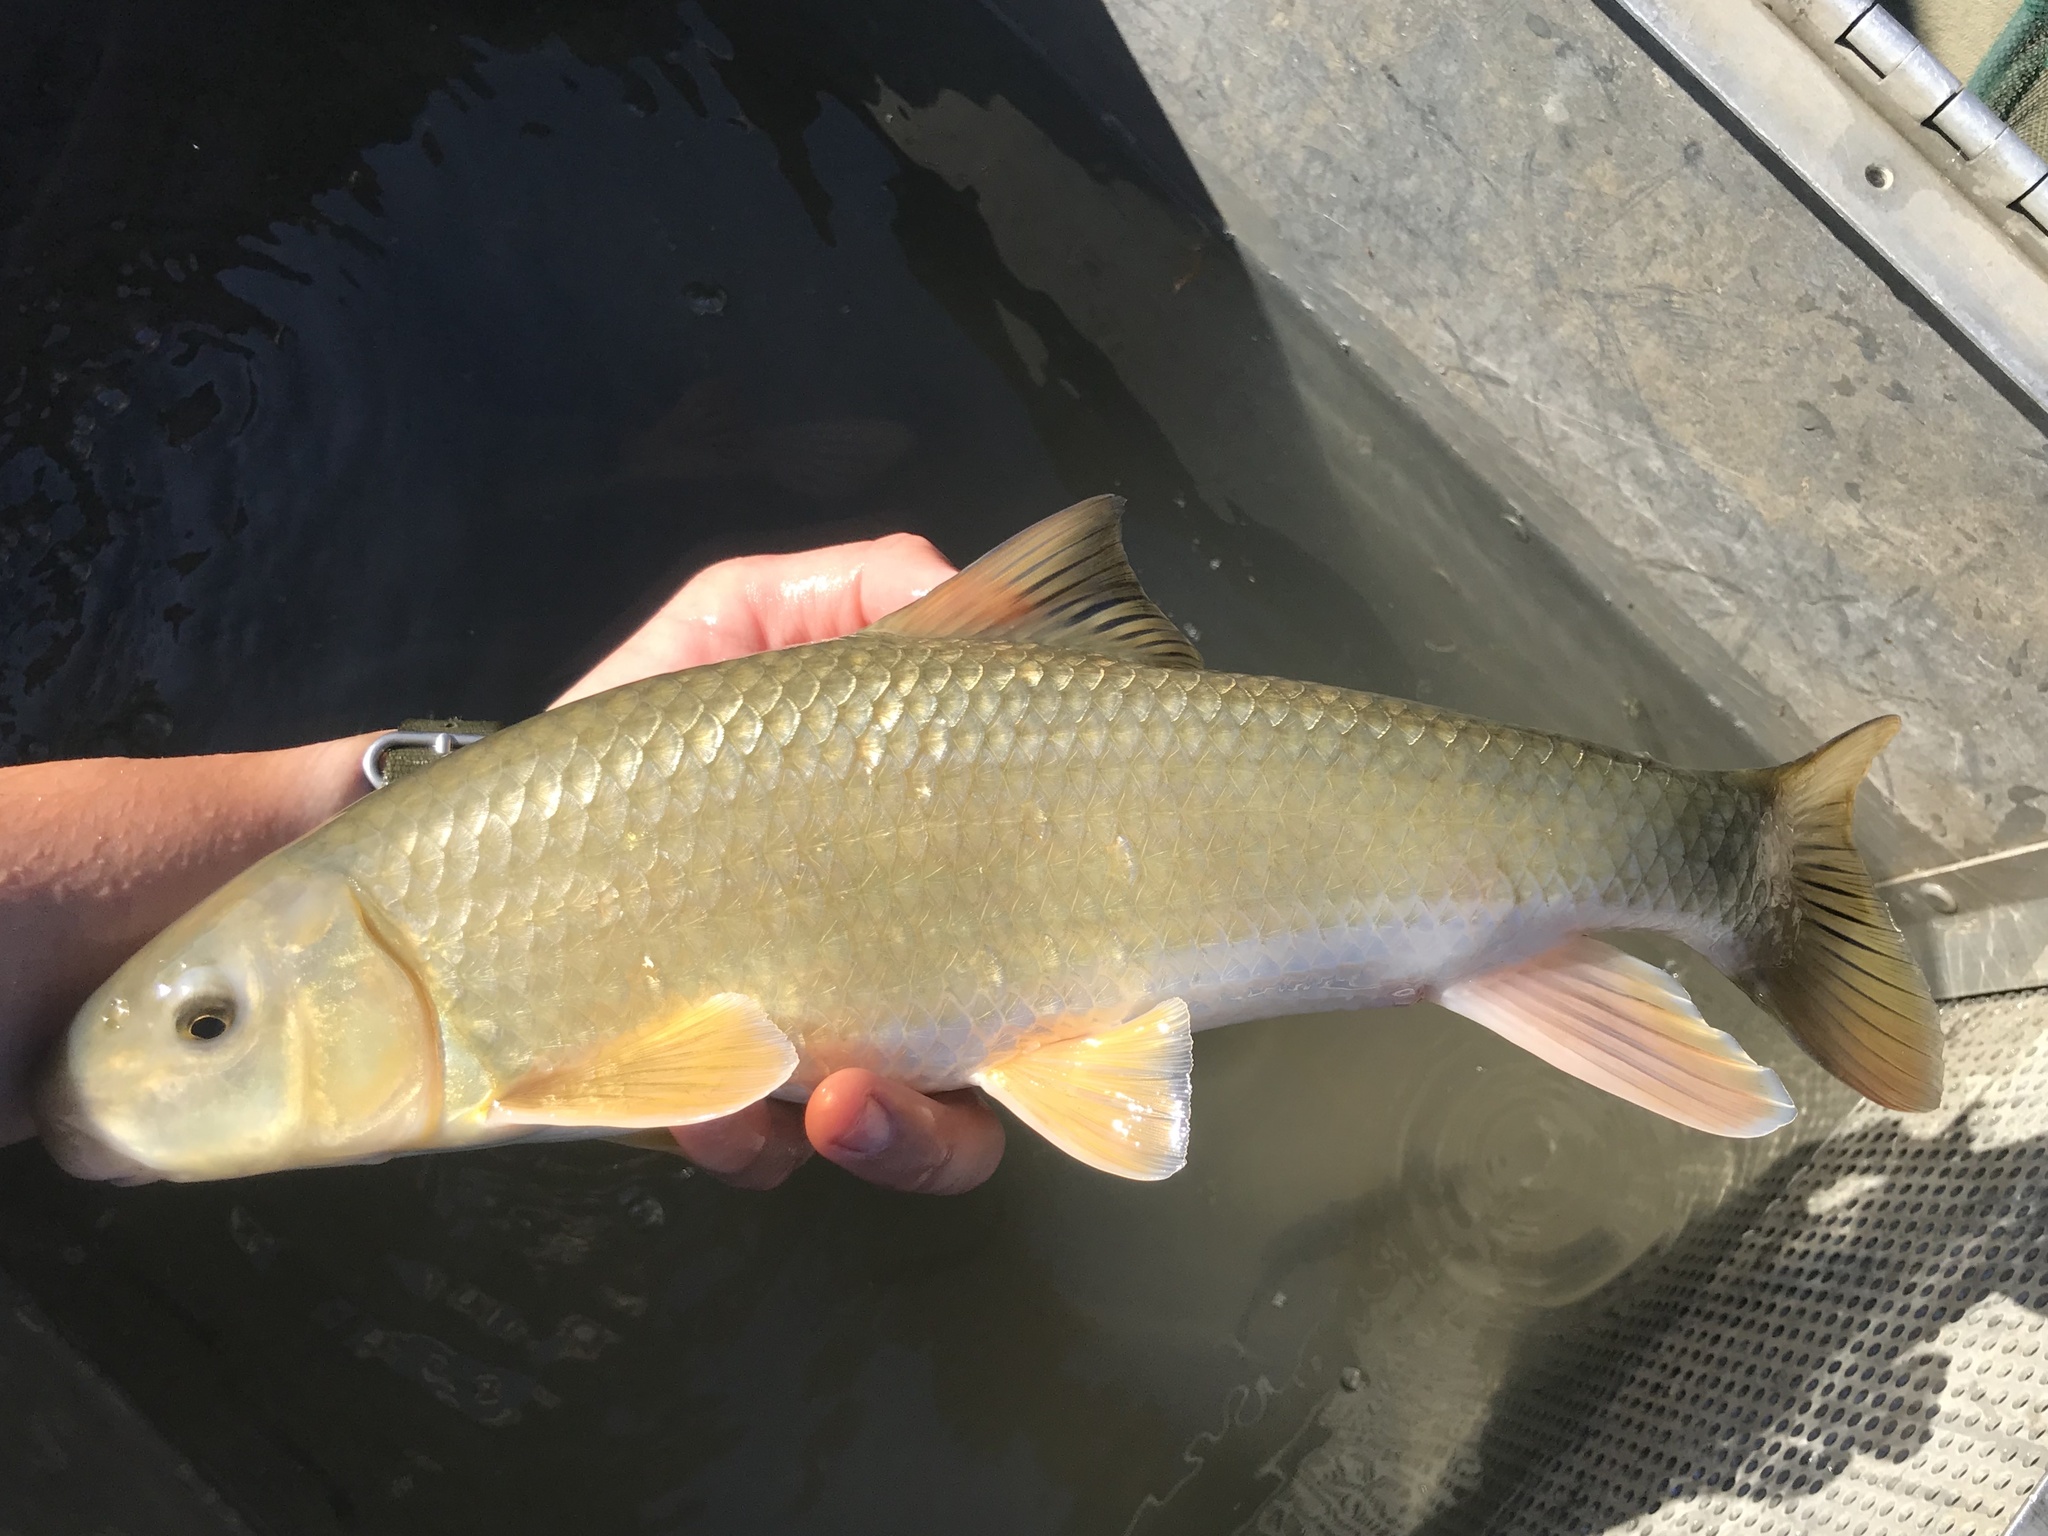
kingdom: Animalia
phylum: Chordata
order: Cypriniformes
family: Catostomidae
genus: Moxostoma
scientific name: Moxostoma congestum
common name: Gray redhorse
